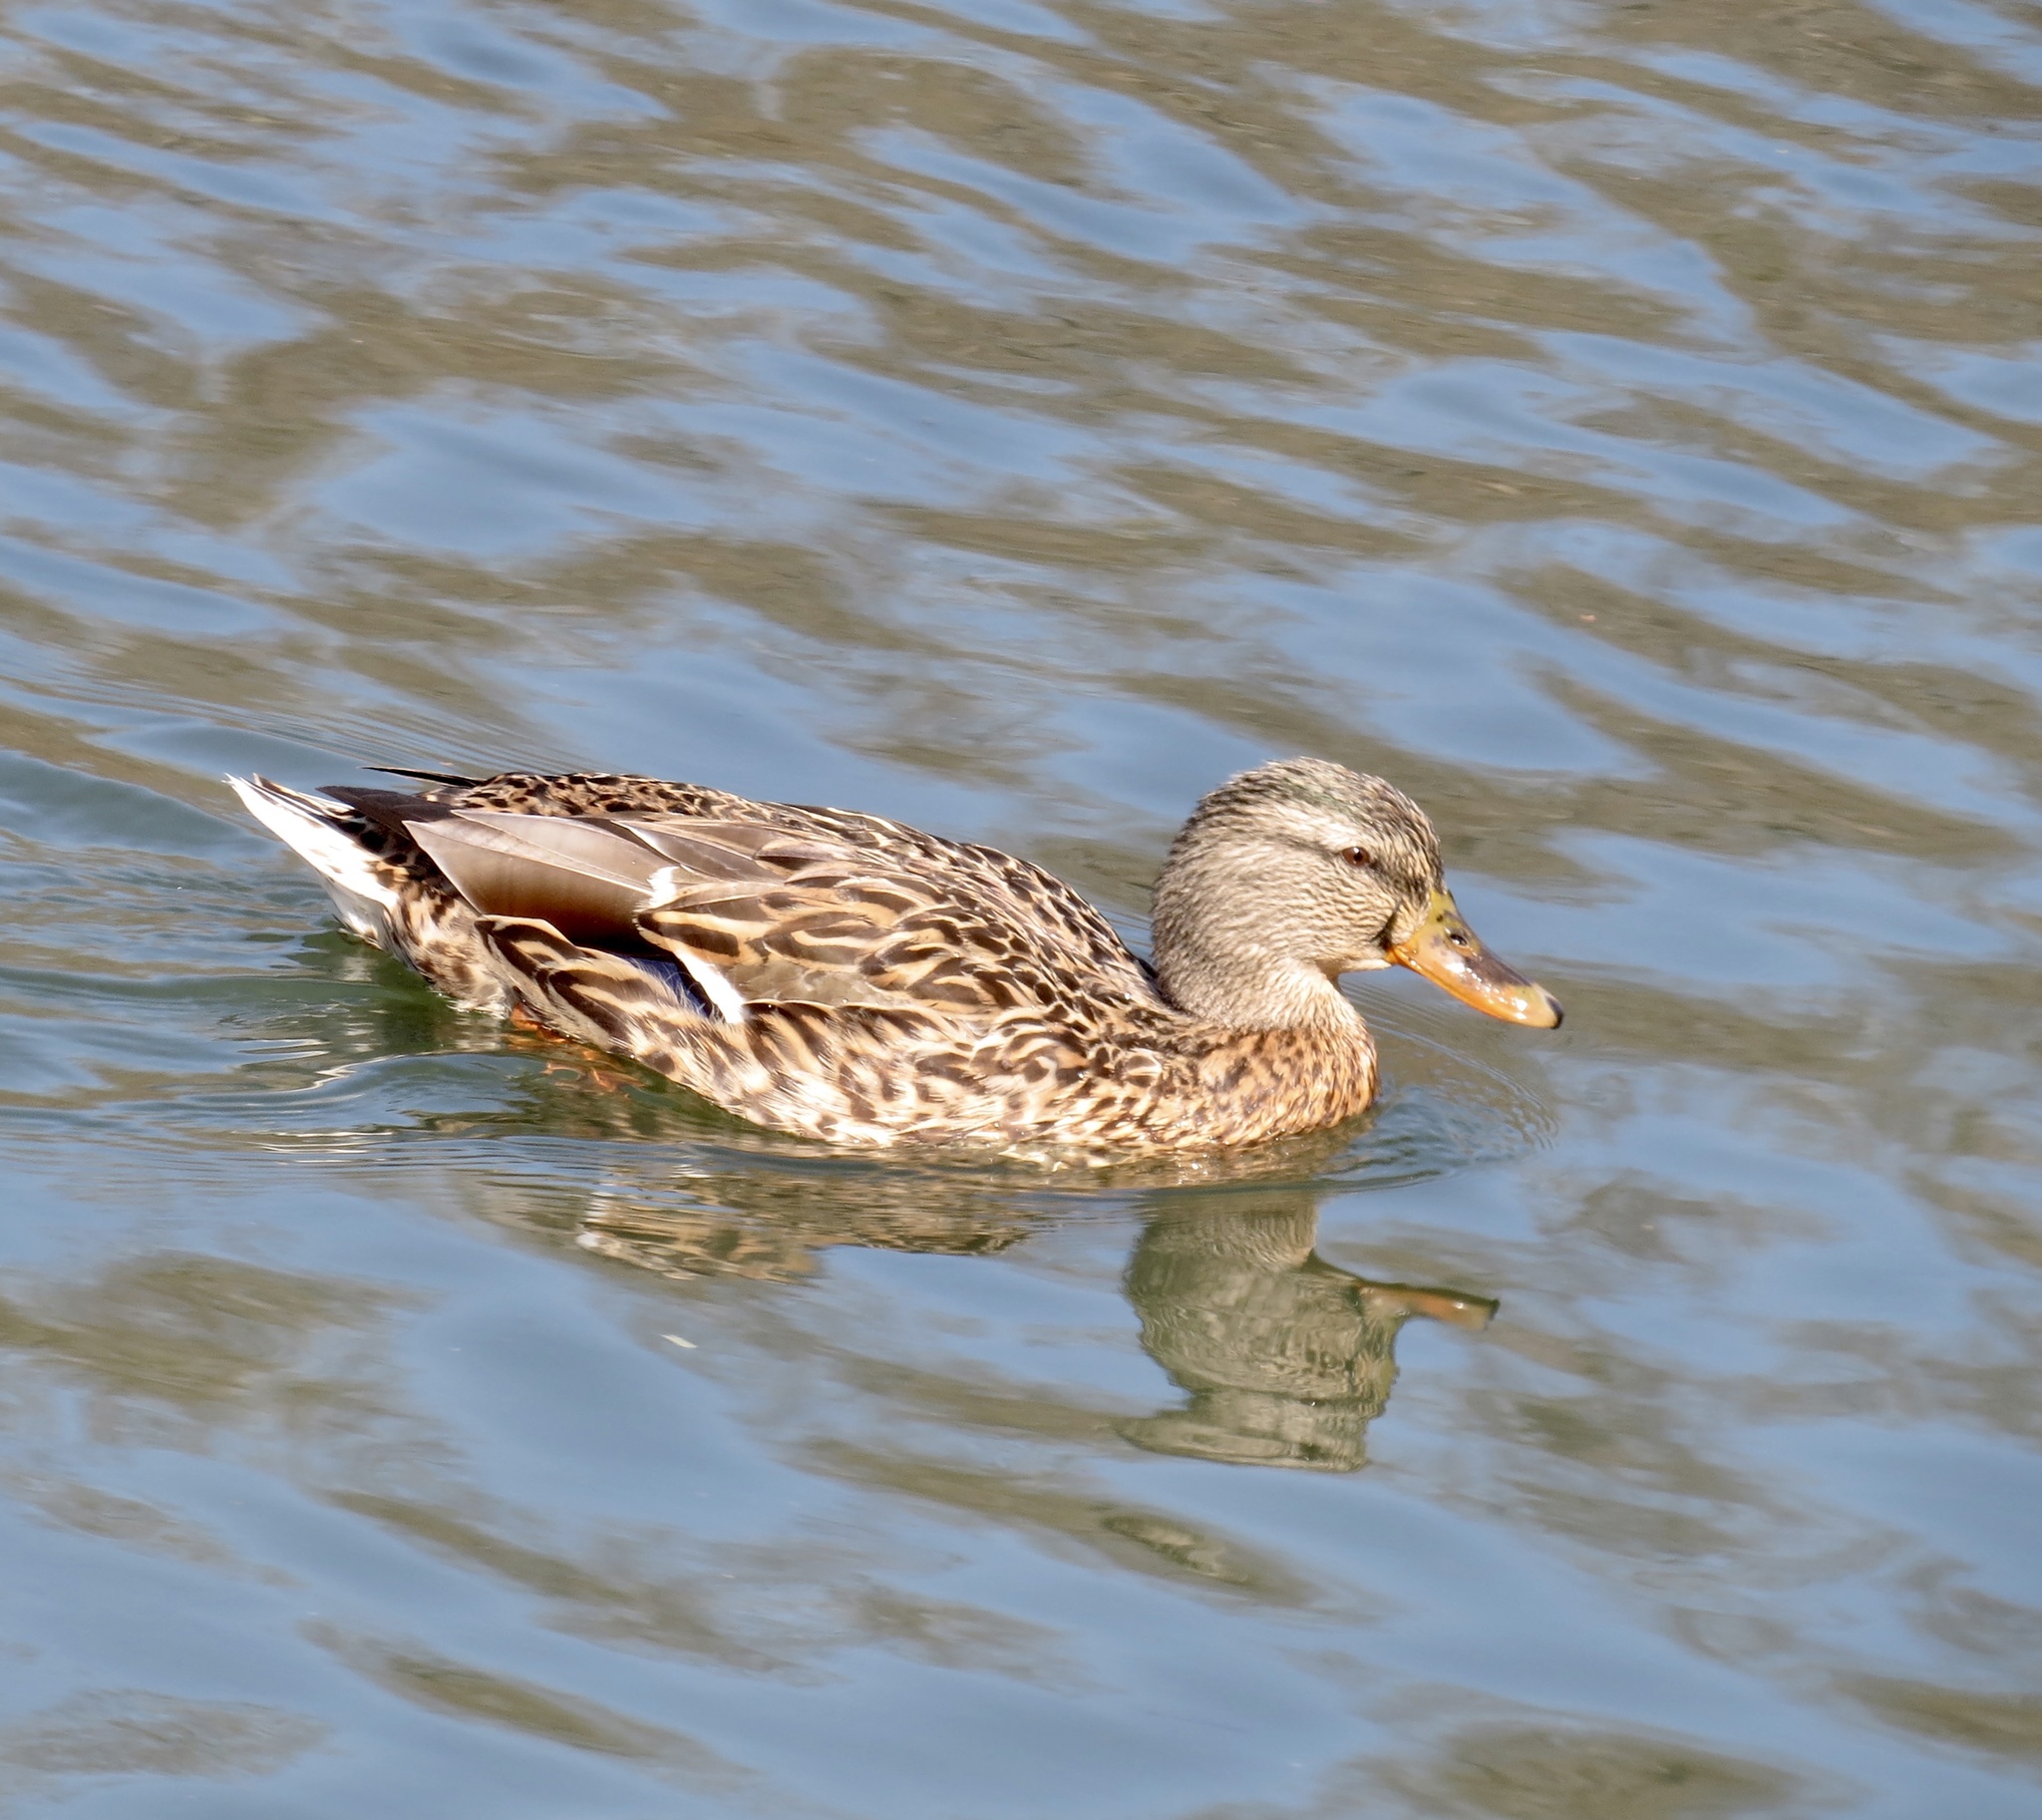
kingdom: Animalia
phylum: Chordata
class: Aves
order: Anseriformes
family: Anatidae
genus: Anas
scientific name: Anas platyrhynchos
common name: Mallard
